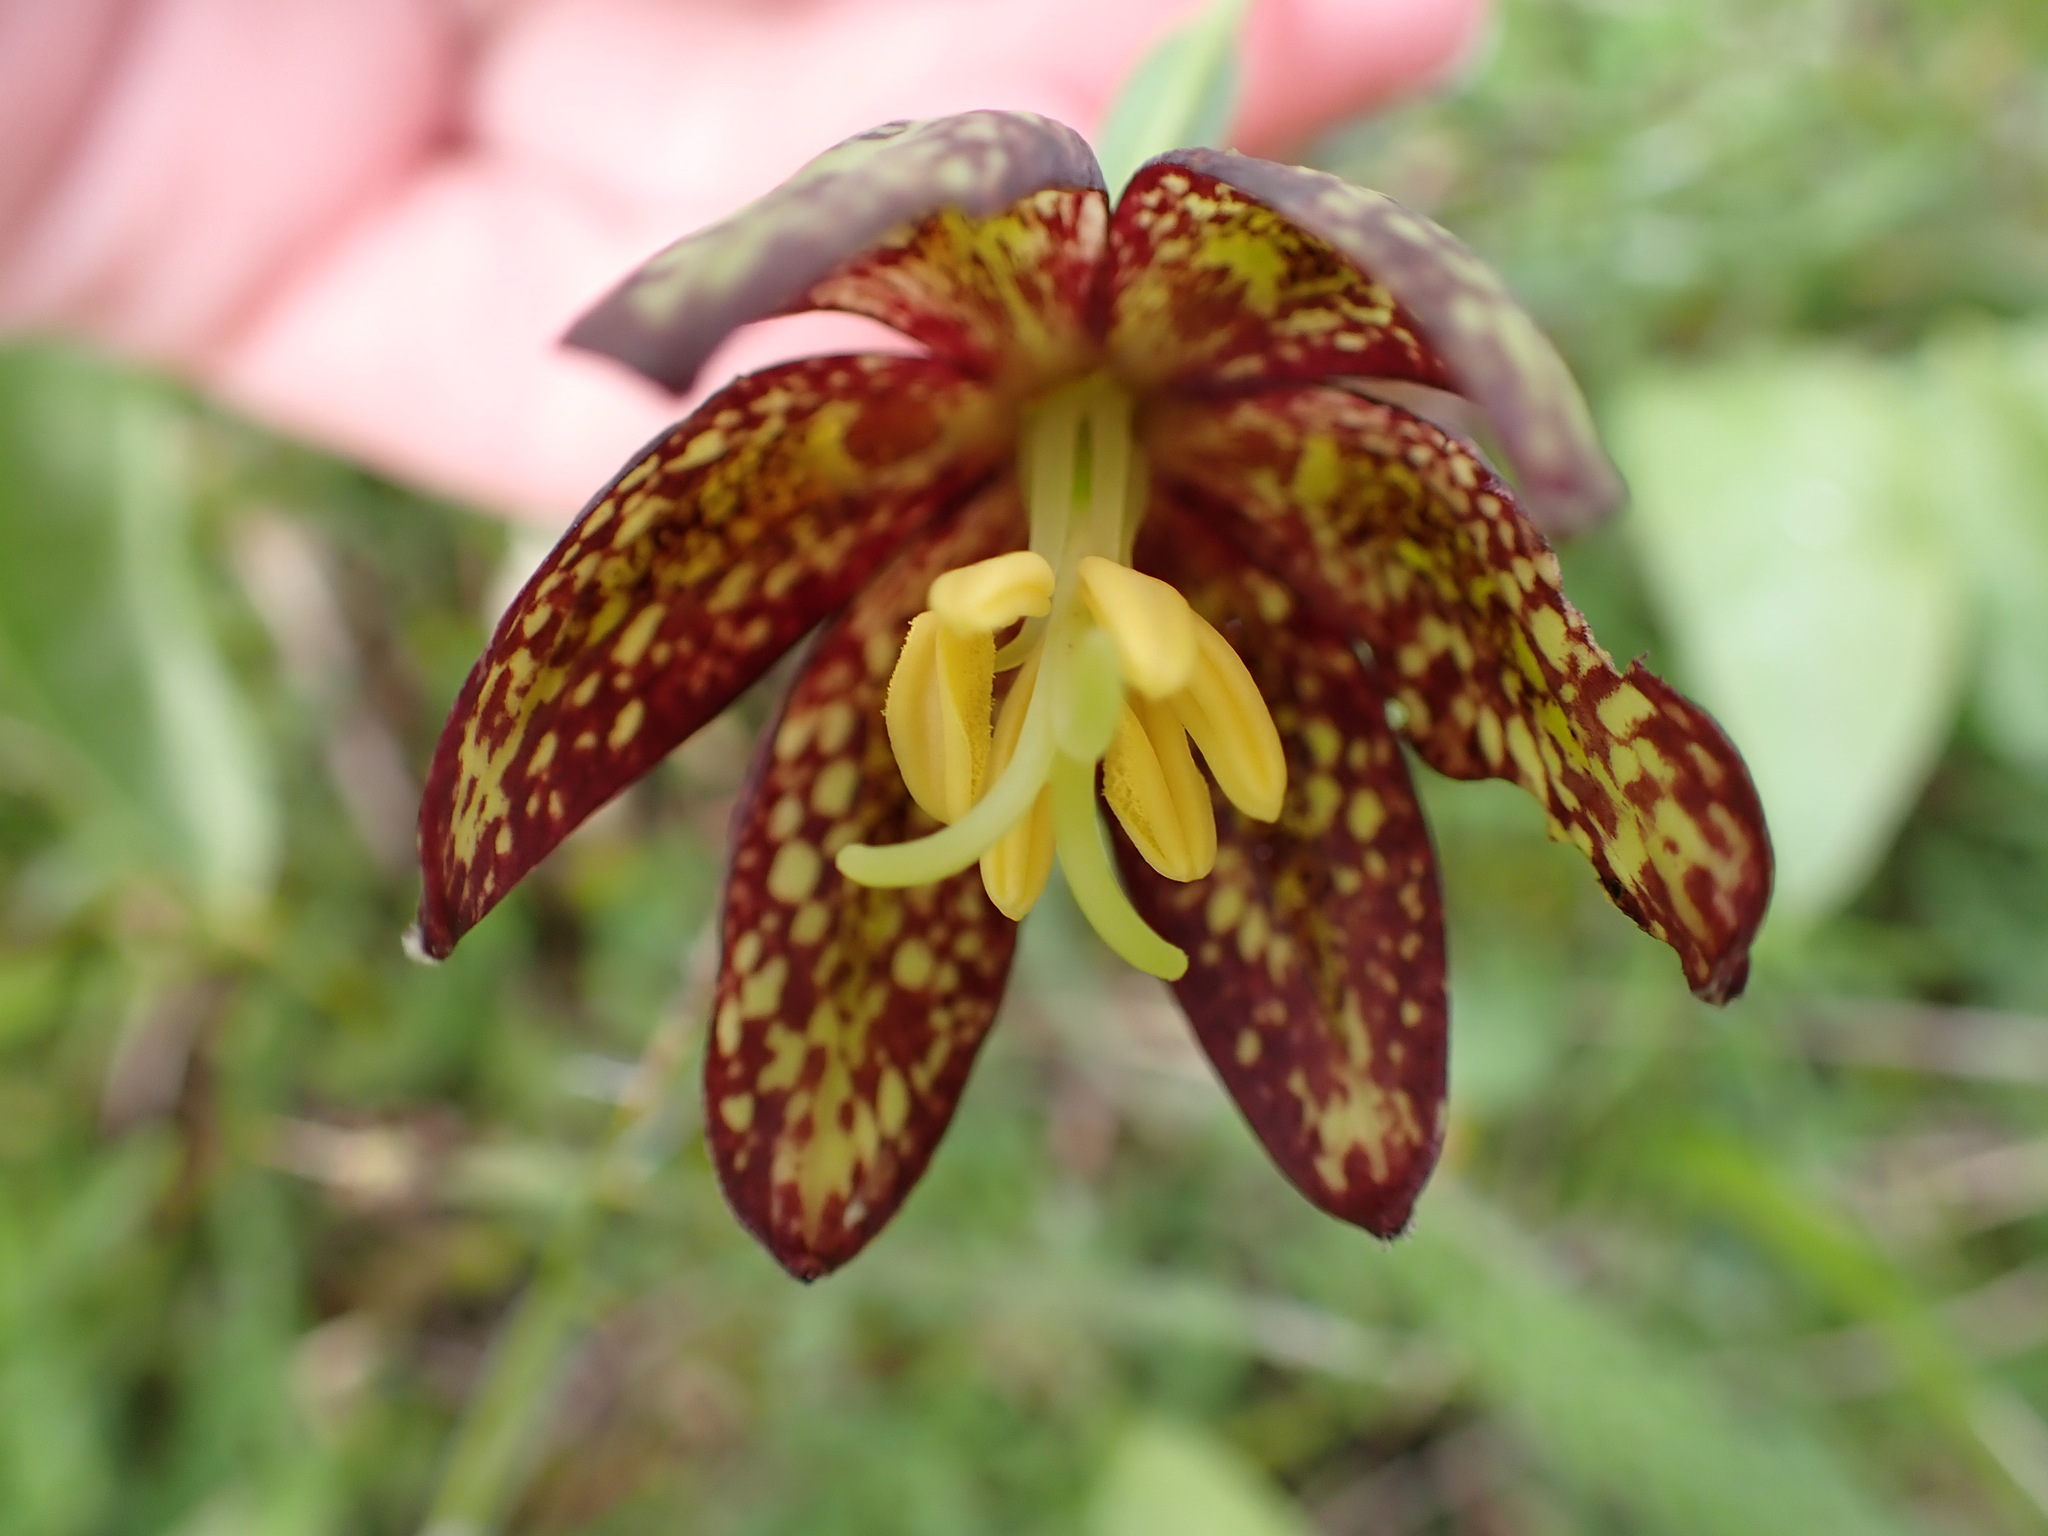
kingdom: Plantae
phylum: Tracheophyta
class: Liliopsida
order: Liliales
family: Liliaceae
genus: Fritillaria
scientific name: Fritillaria affinis
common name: Ojai fritillary
